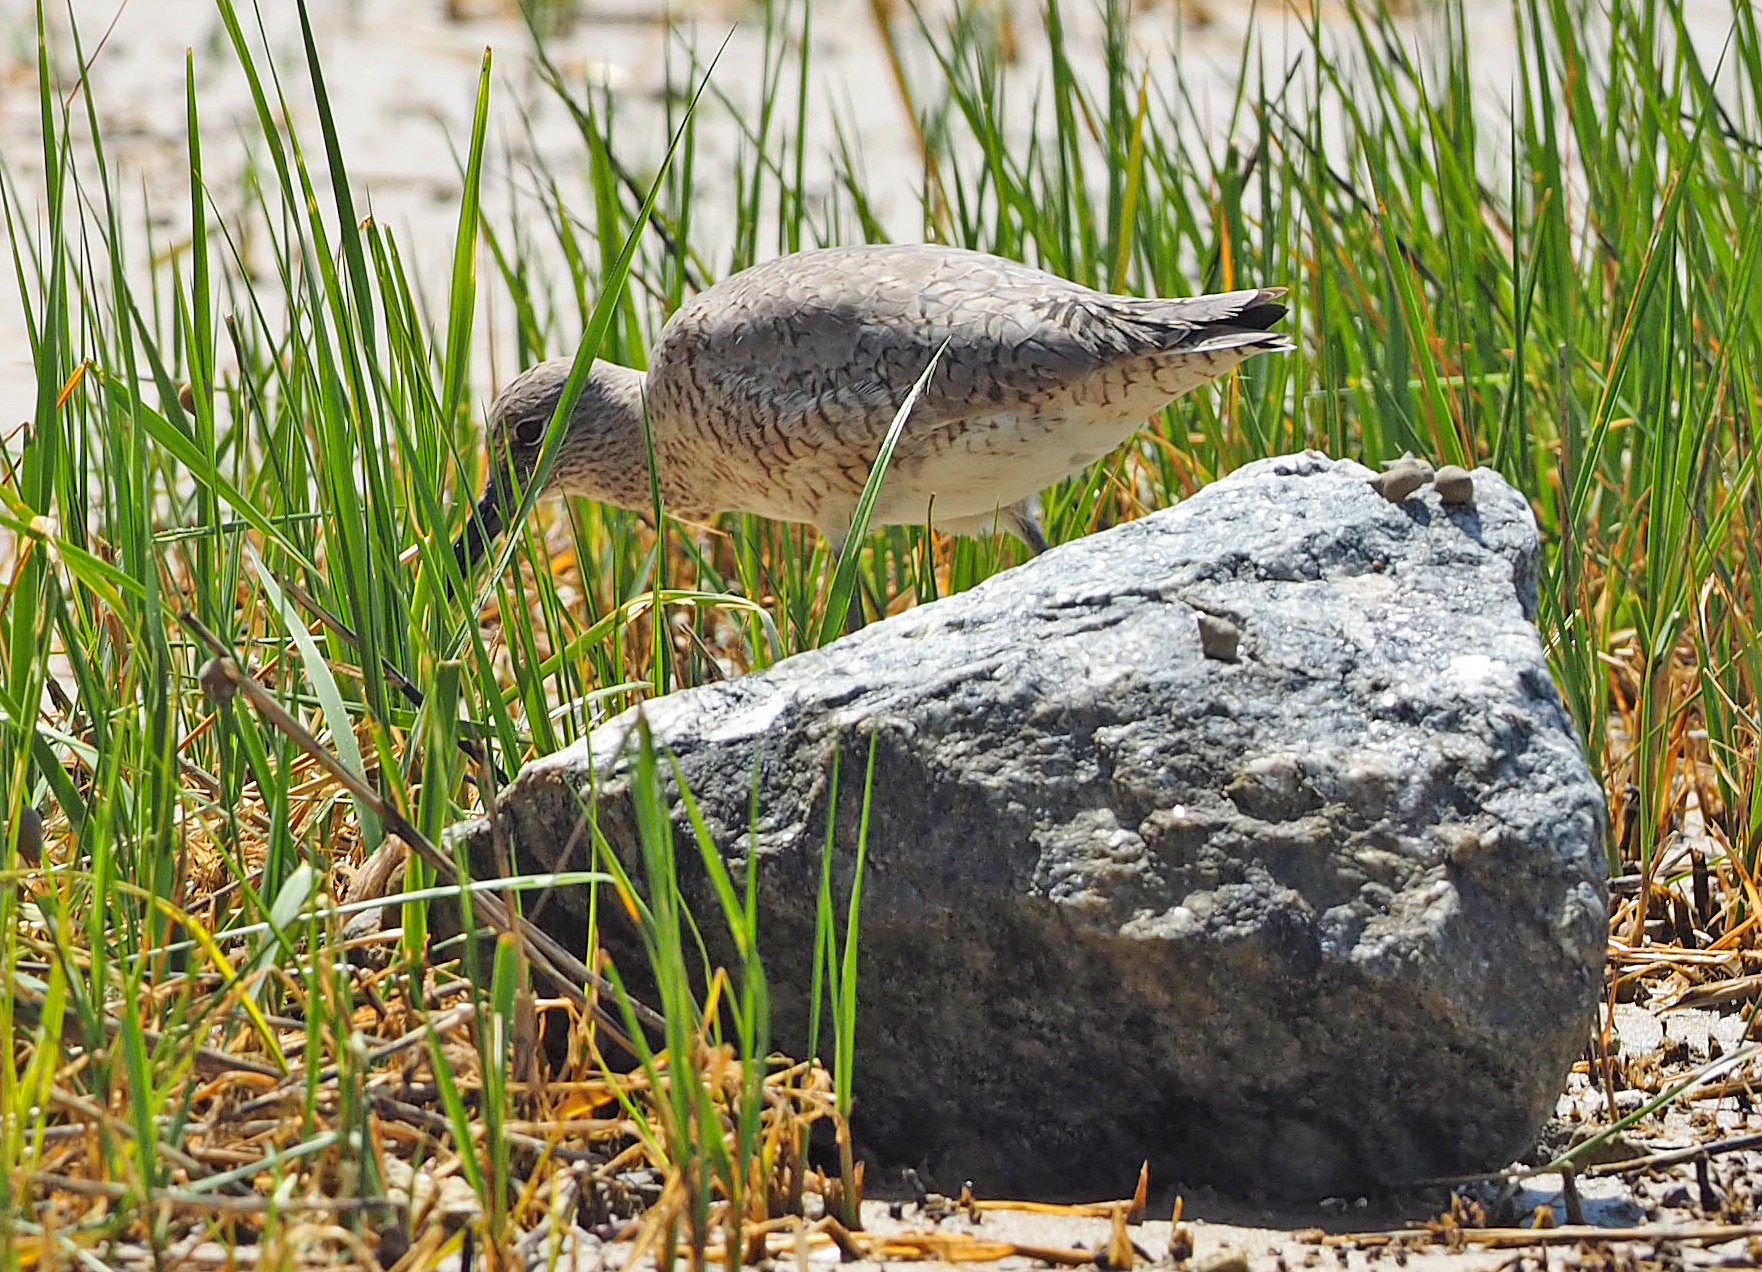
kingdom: Animalia
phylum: Chordata
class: Aves
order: Charadriiformes
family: Scolopacidae
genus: Tringa
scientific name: Tringa semipalmata
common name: Willet
